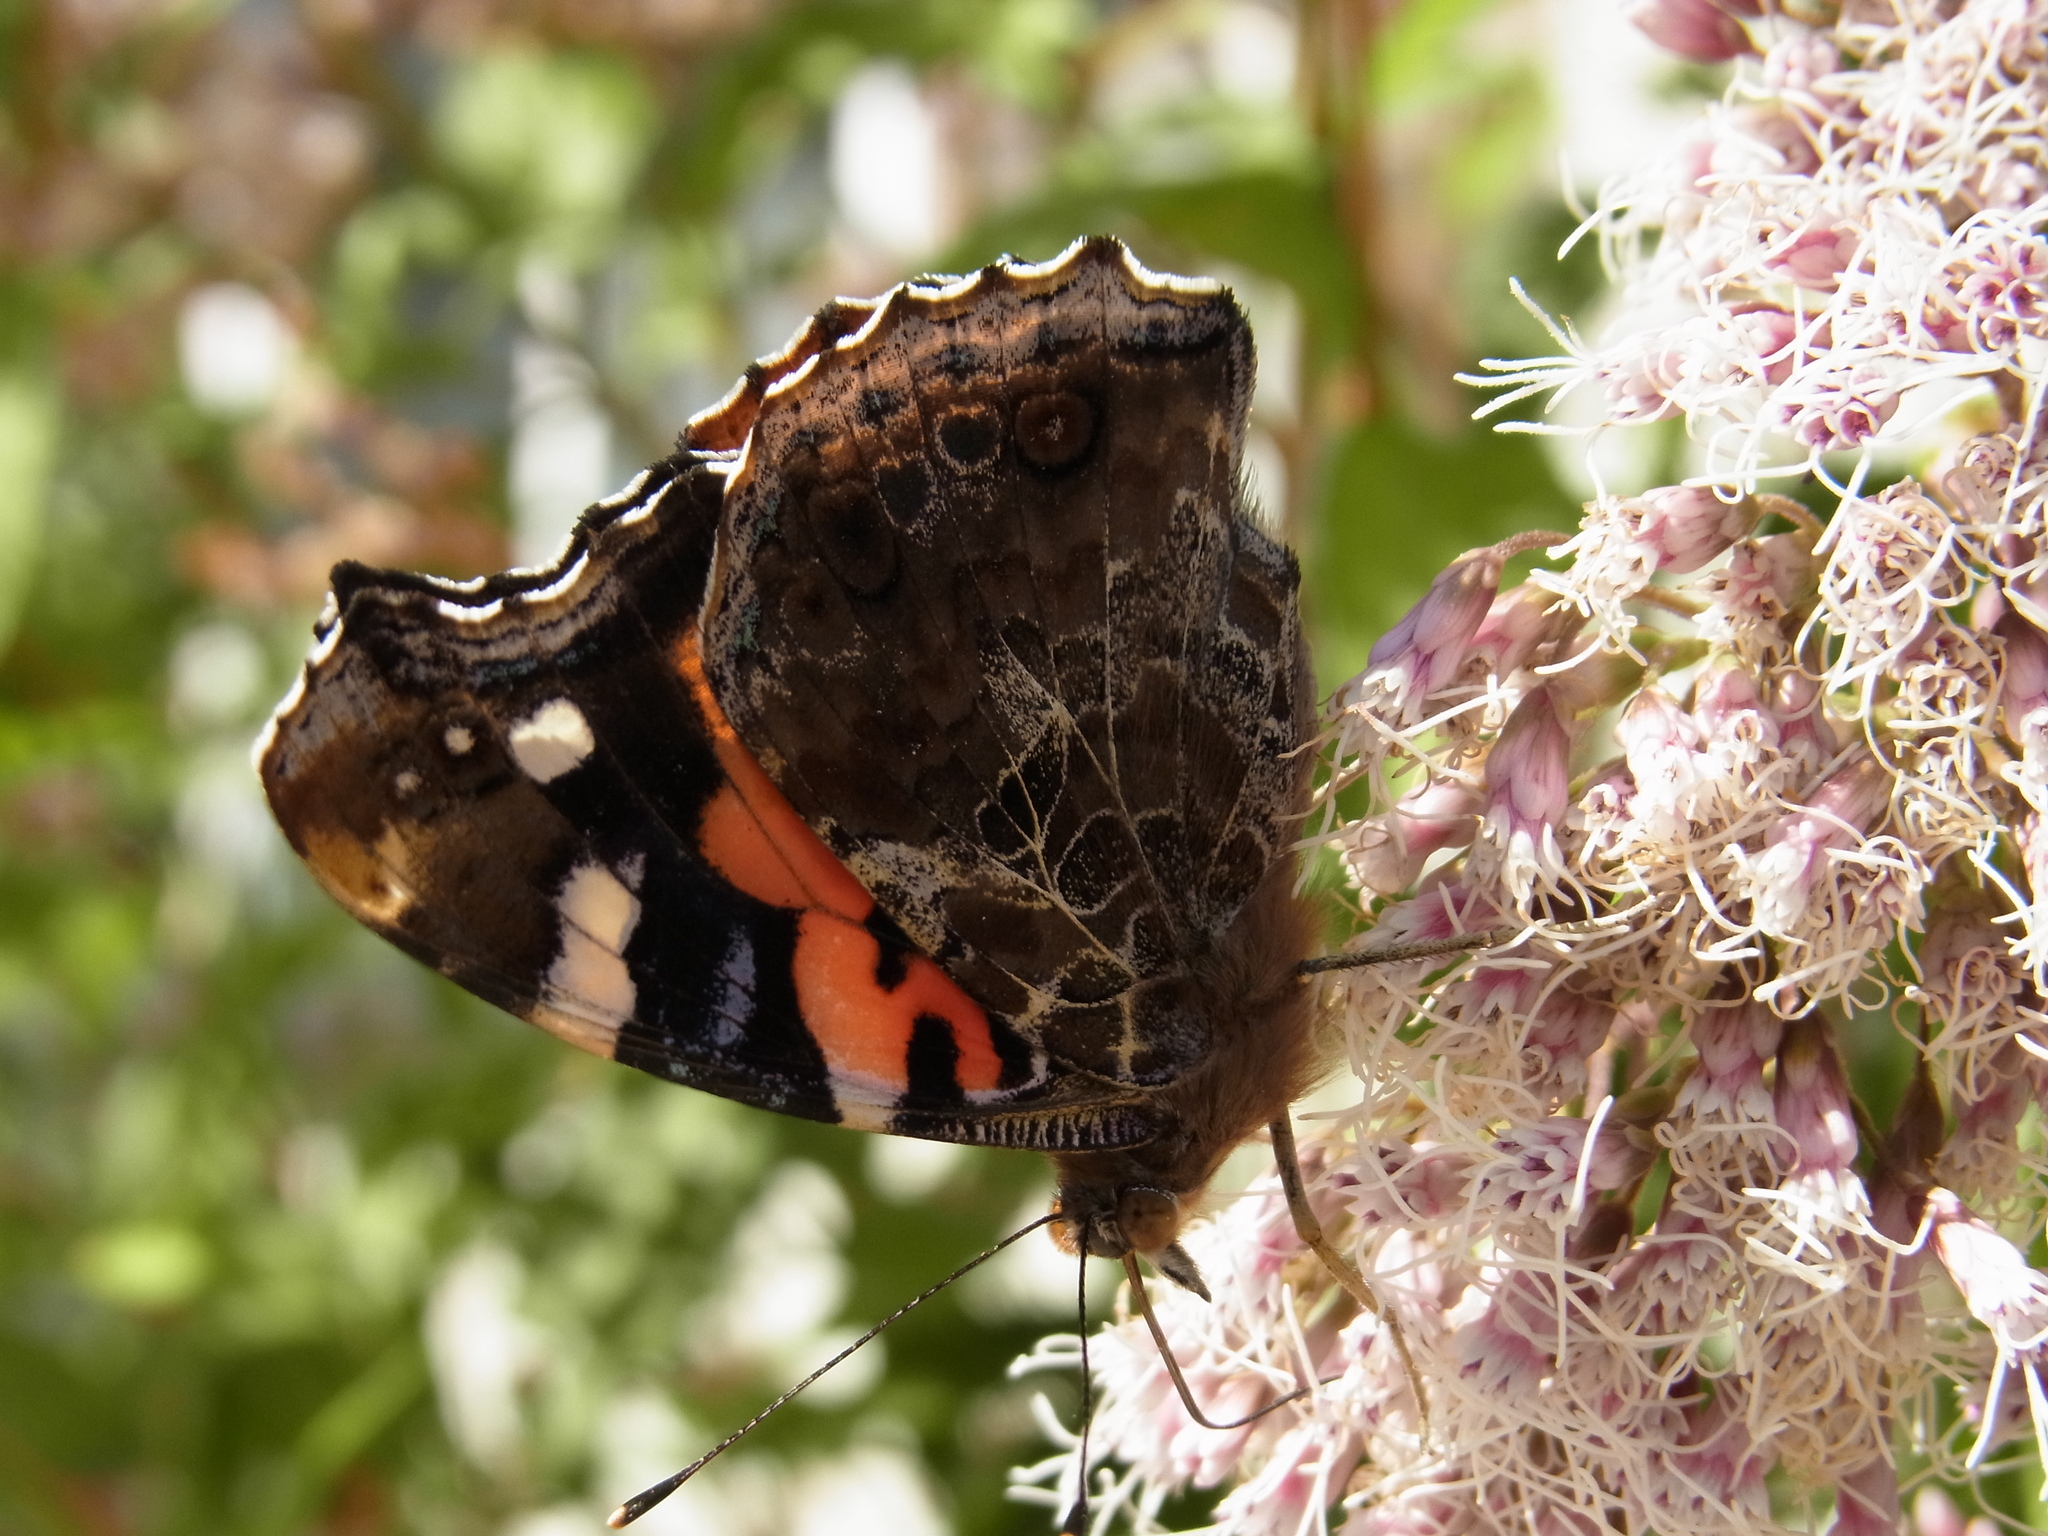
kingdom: Animalia
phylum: Arthropoda
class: Insecta
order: Lepidoptera
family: Nymphalidae
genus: Vanessa
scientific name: Vanessa indica
